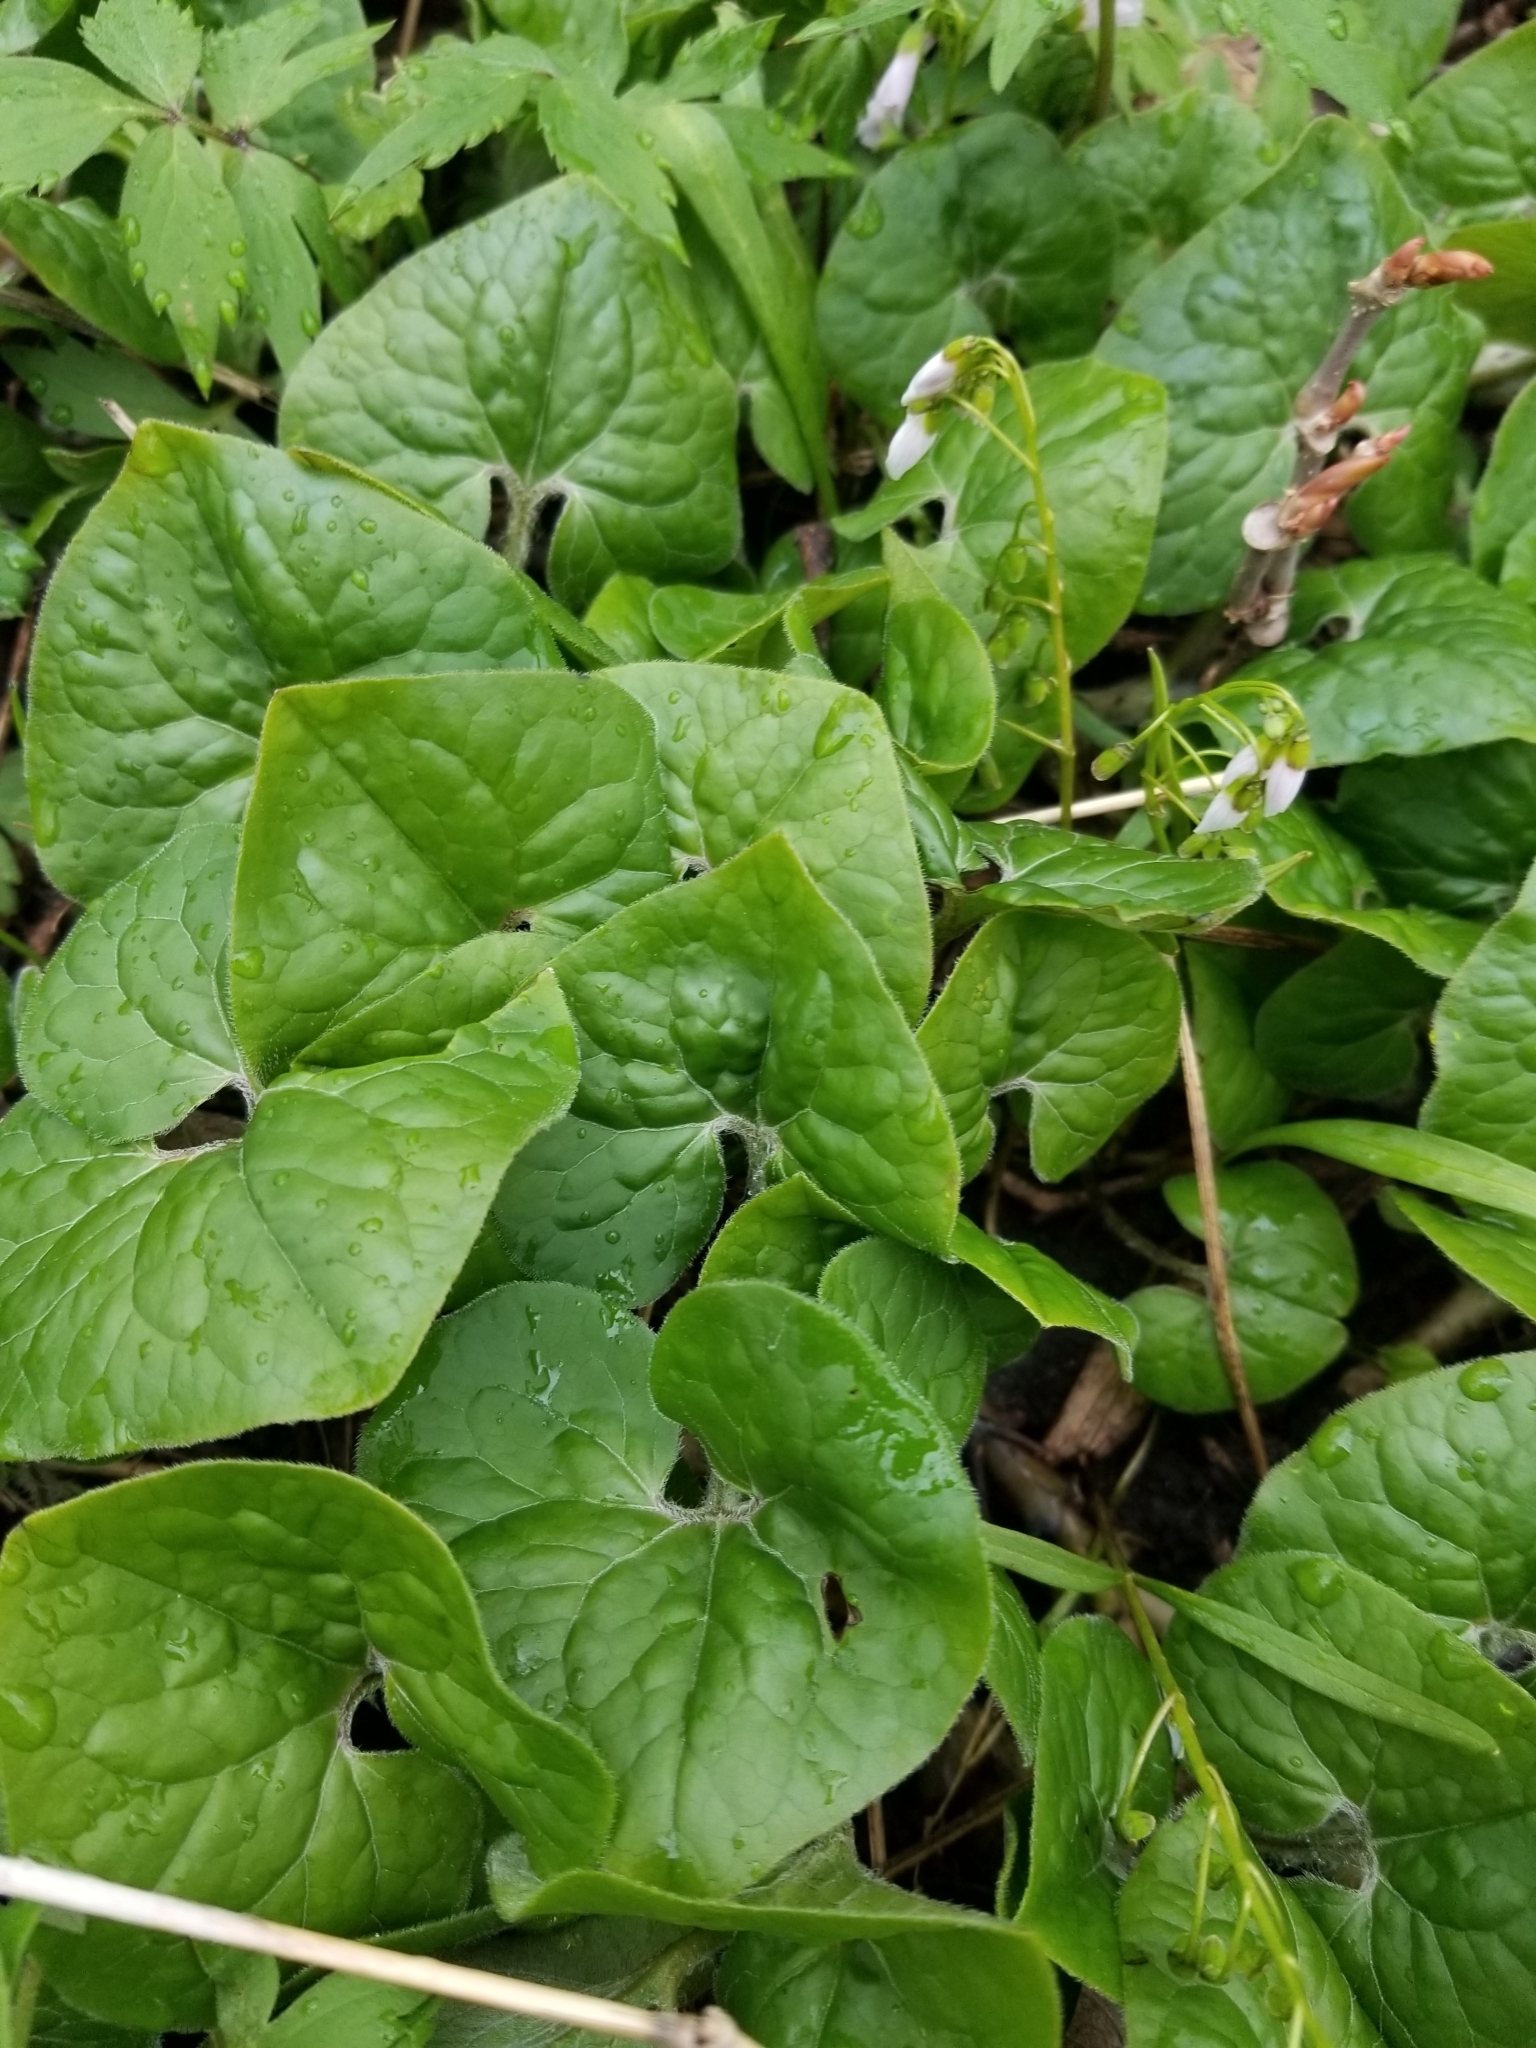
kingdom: Plantae
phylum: Tracheophyta
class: Magnoliopsida
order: Piperales
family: Aristolochiaceae
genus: Asarum
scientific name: Asarum canadense
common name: Wild ginger
